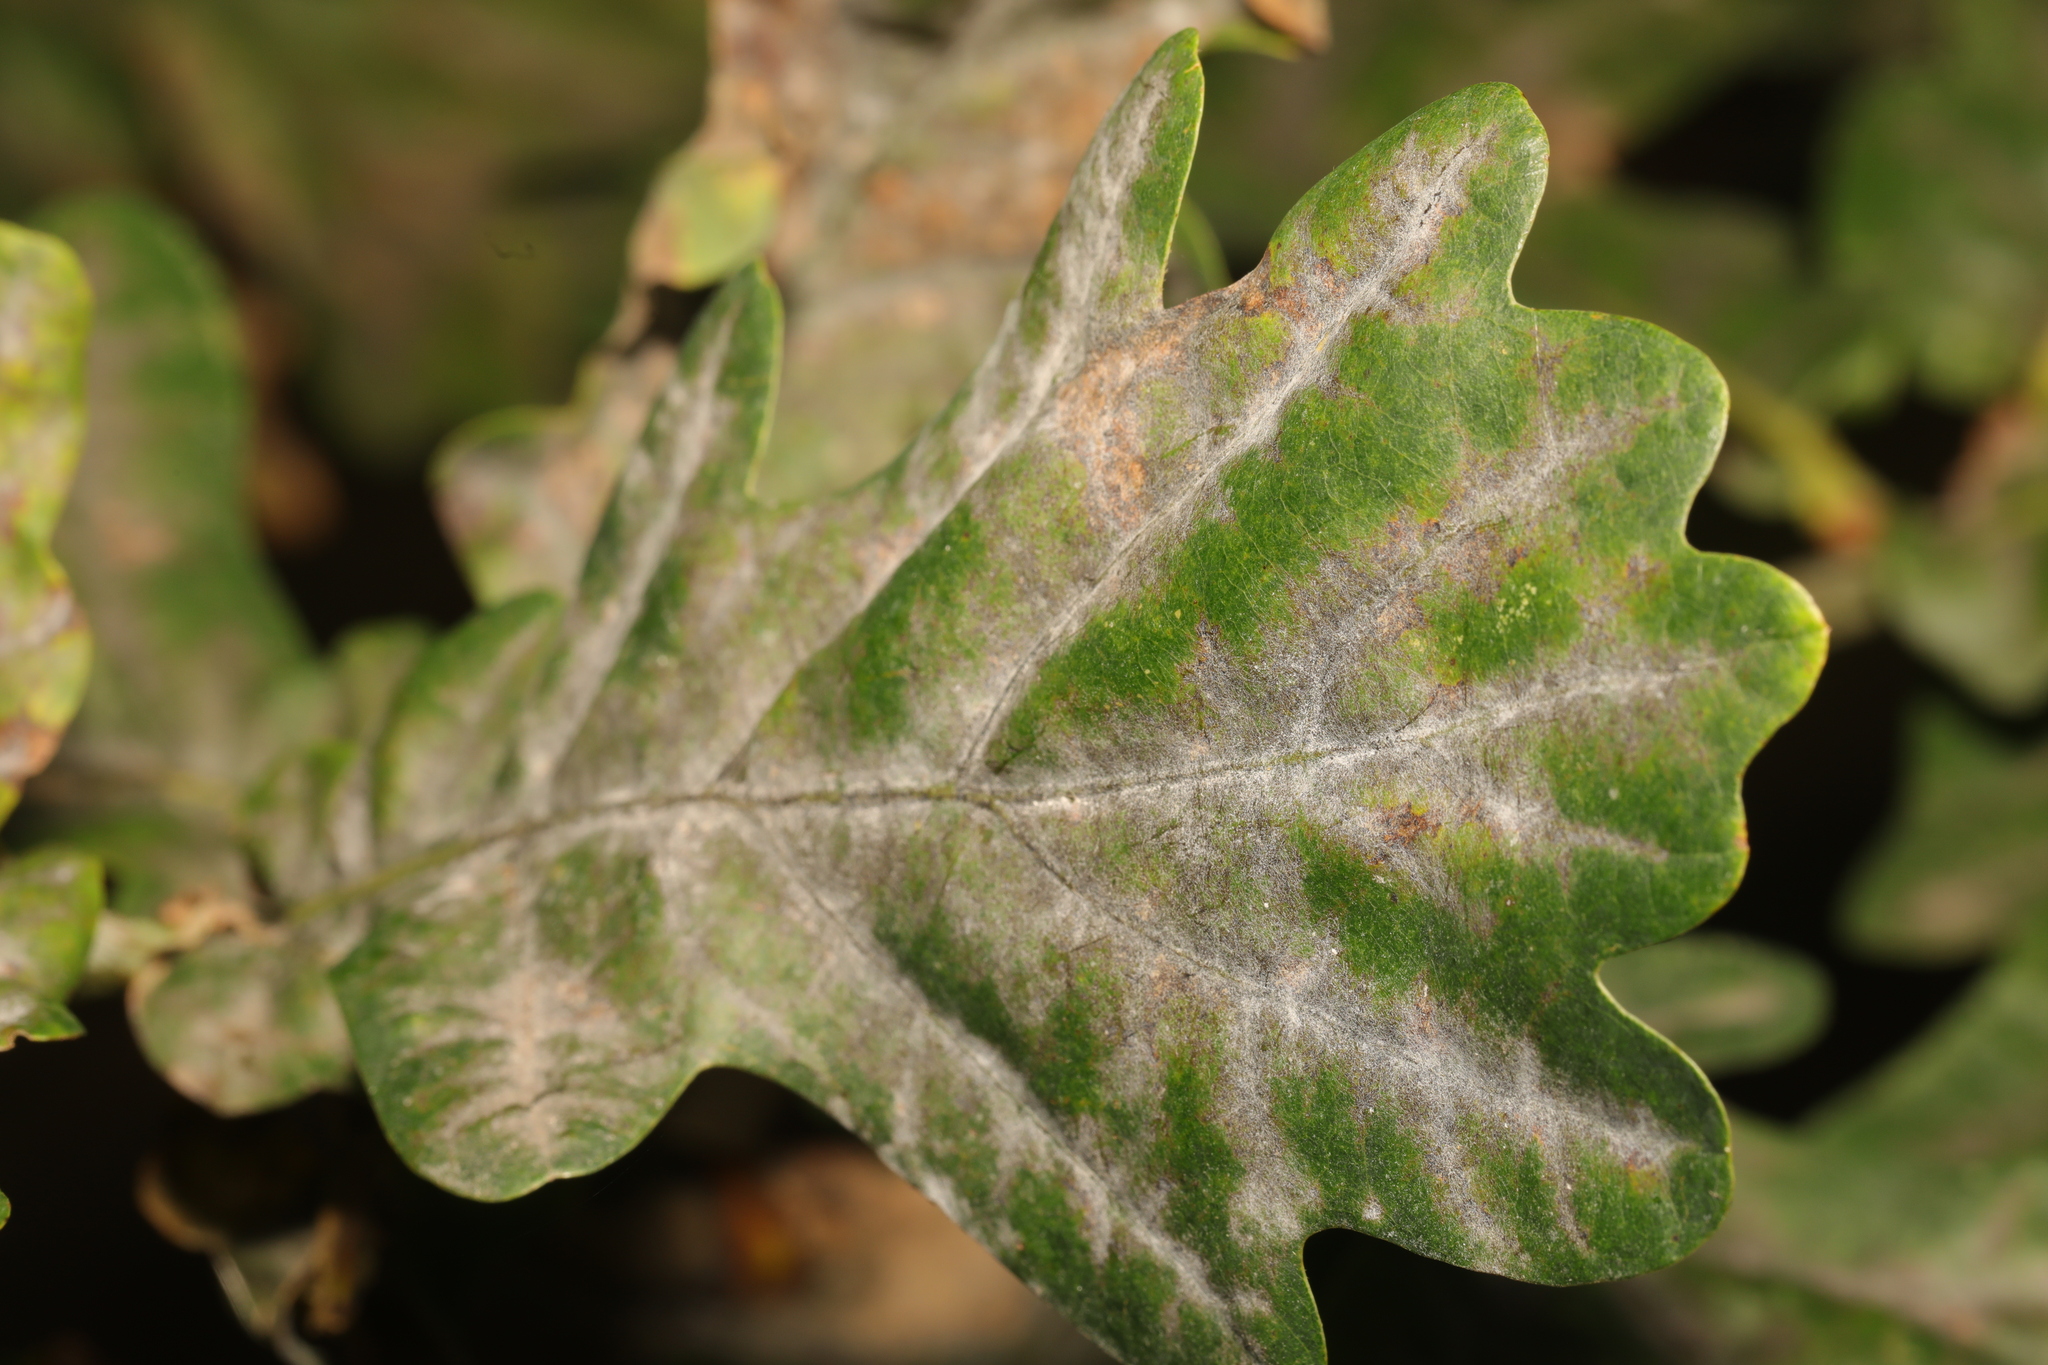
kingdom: Fungi
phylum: Ascomycota
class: Leotiomycetes
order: Helotiales
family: Erysiphaceae
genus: Erysiphe
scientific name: Erysiphe alphitoides
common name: Oak mildew
